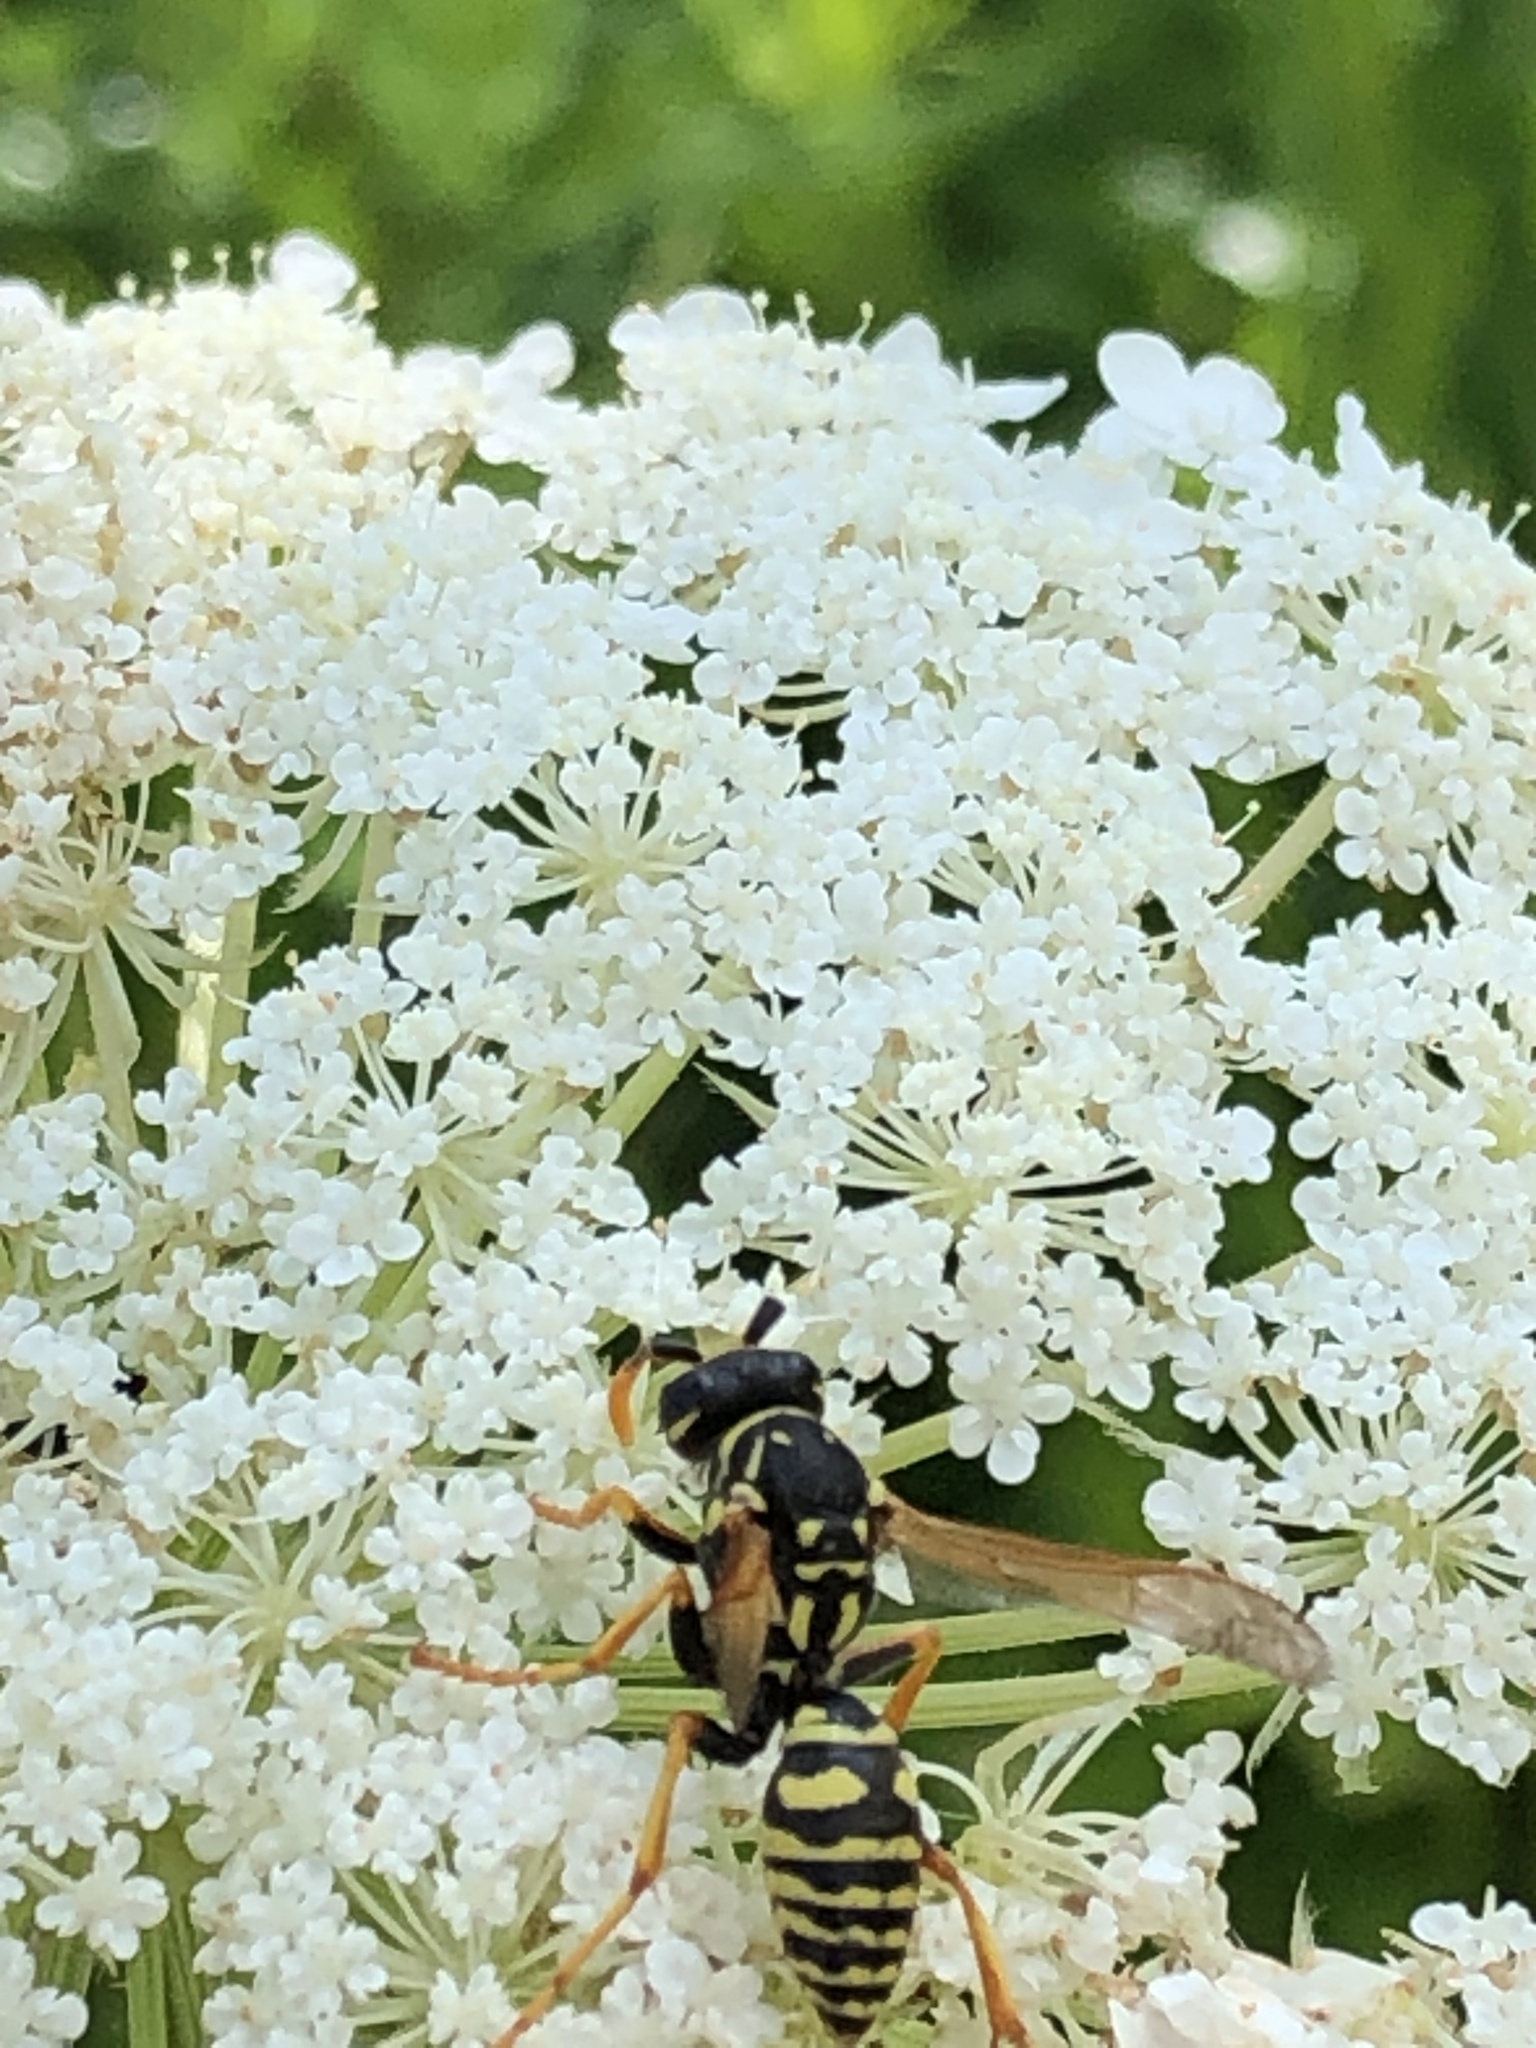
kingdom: Animalia
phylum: Arthropoda
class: Insecta
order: Hymenoptera
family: Eumenidae
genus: Polistes
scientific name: Polistes dominula
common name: Paper wasp
